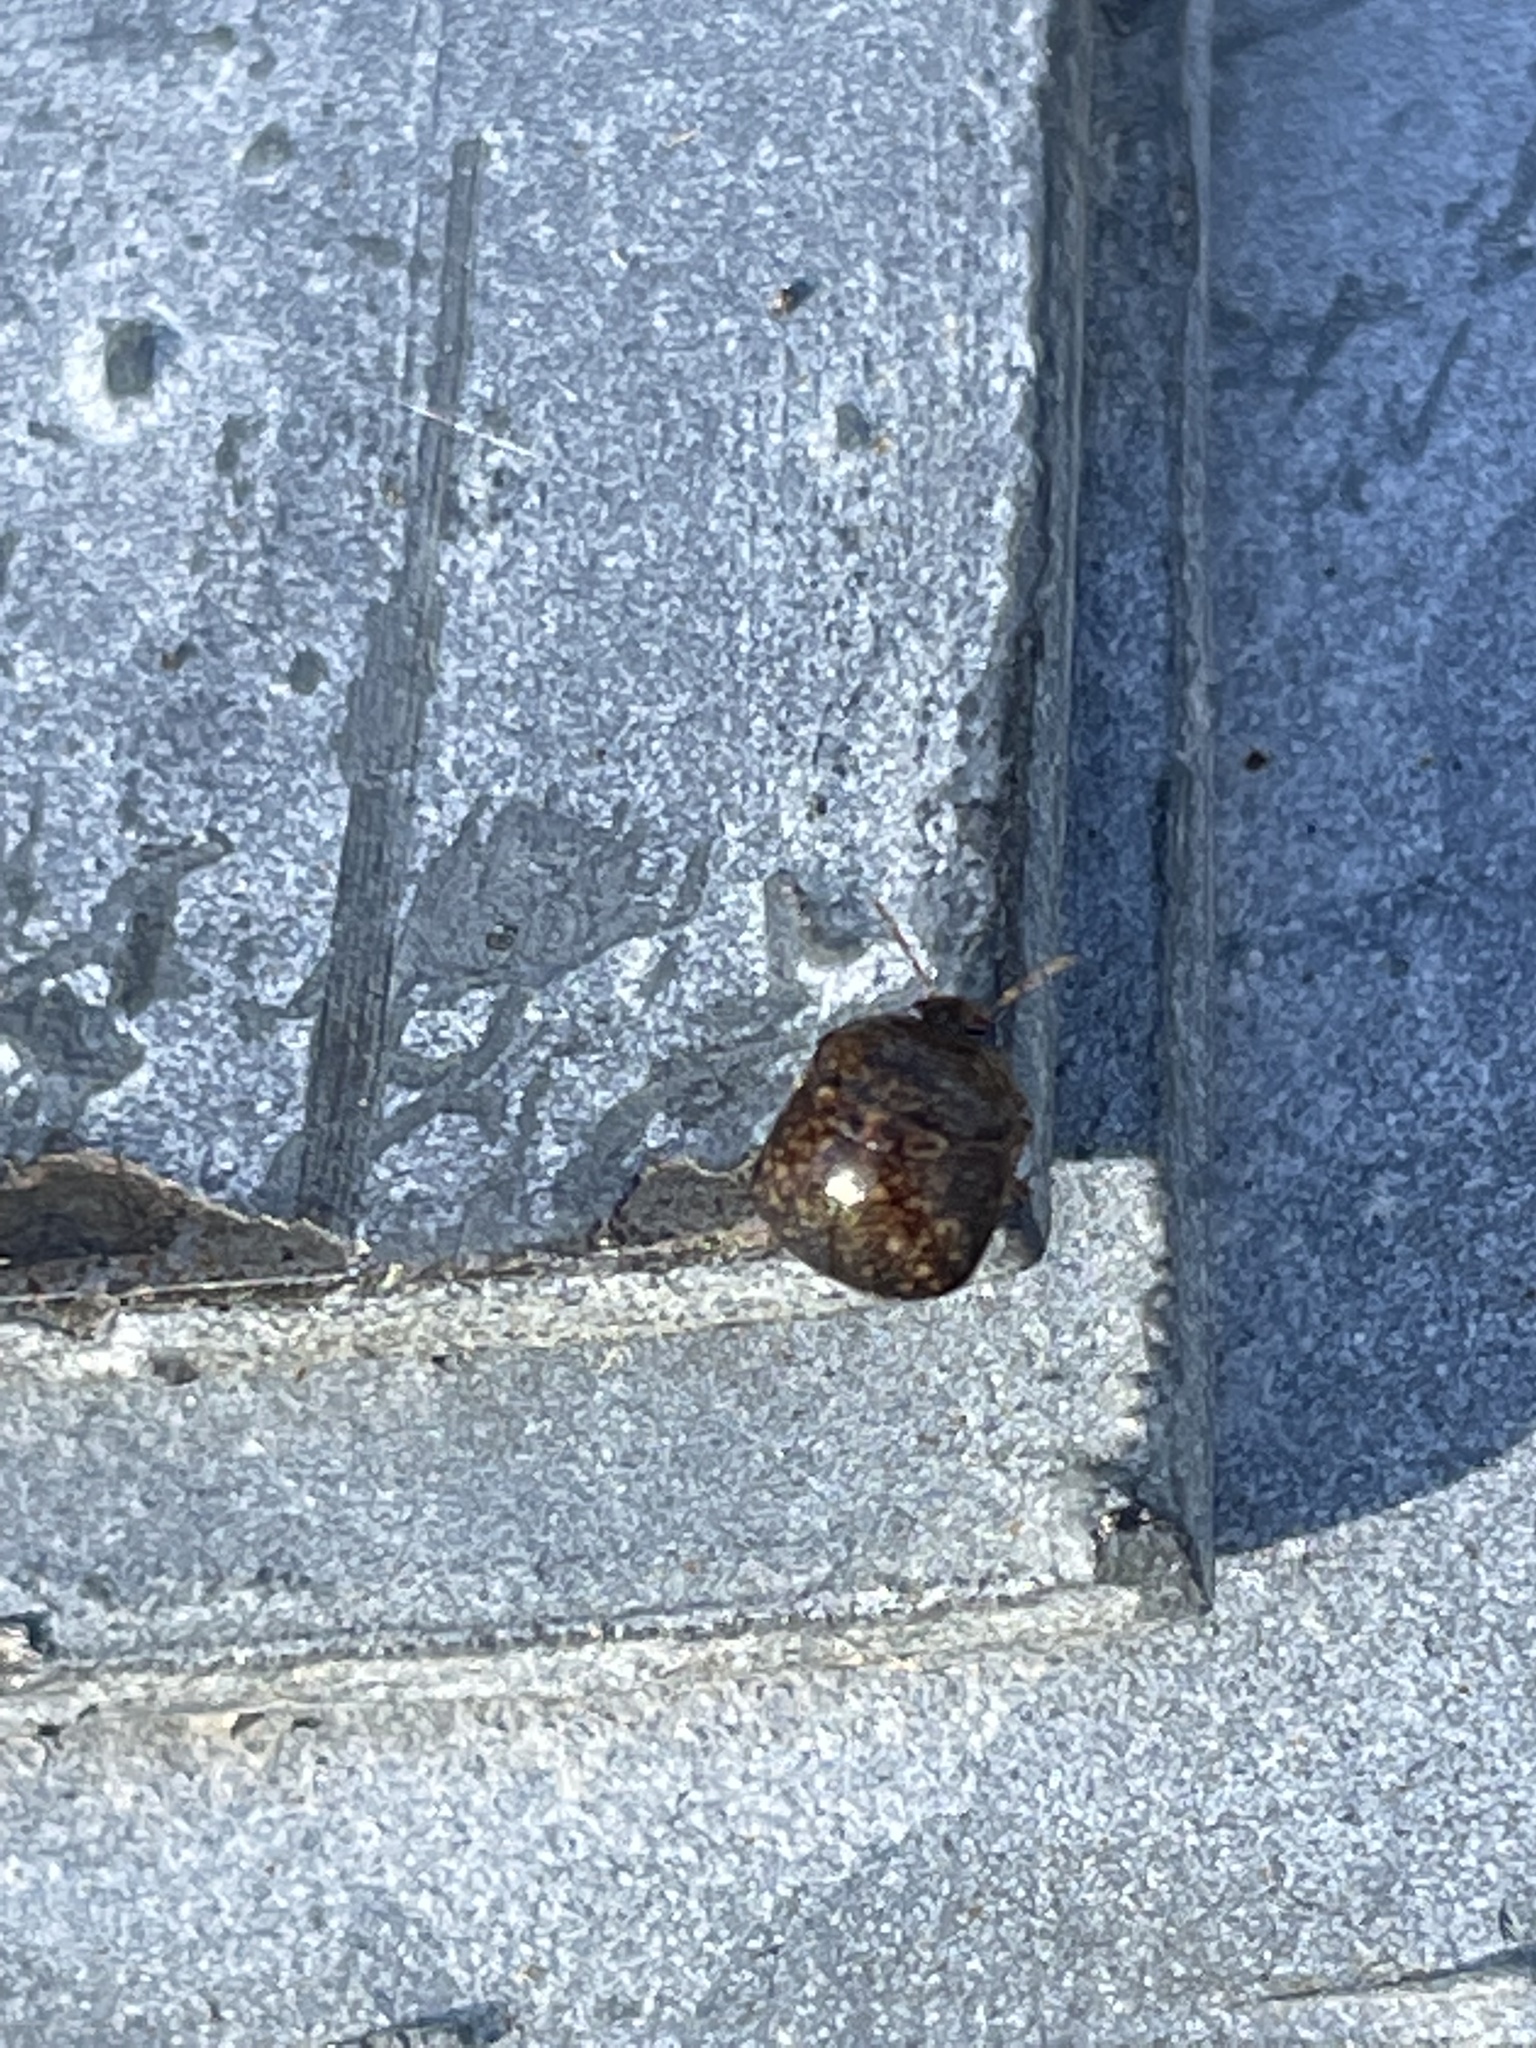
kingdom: Animalia
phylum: Arthropoda
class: Insecta
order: Hemiptera
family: Plataspidae
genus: Megacopta
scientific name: Megacopta cribraria
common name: Bean plataspid
